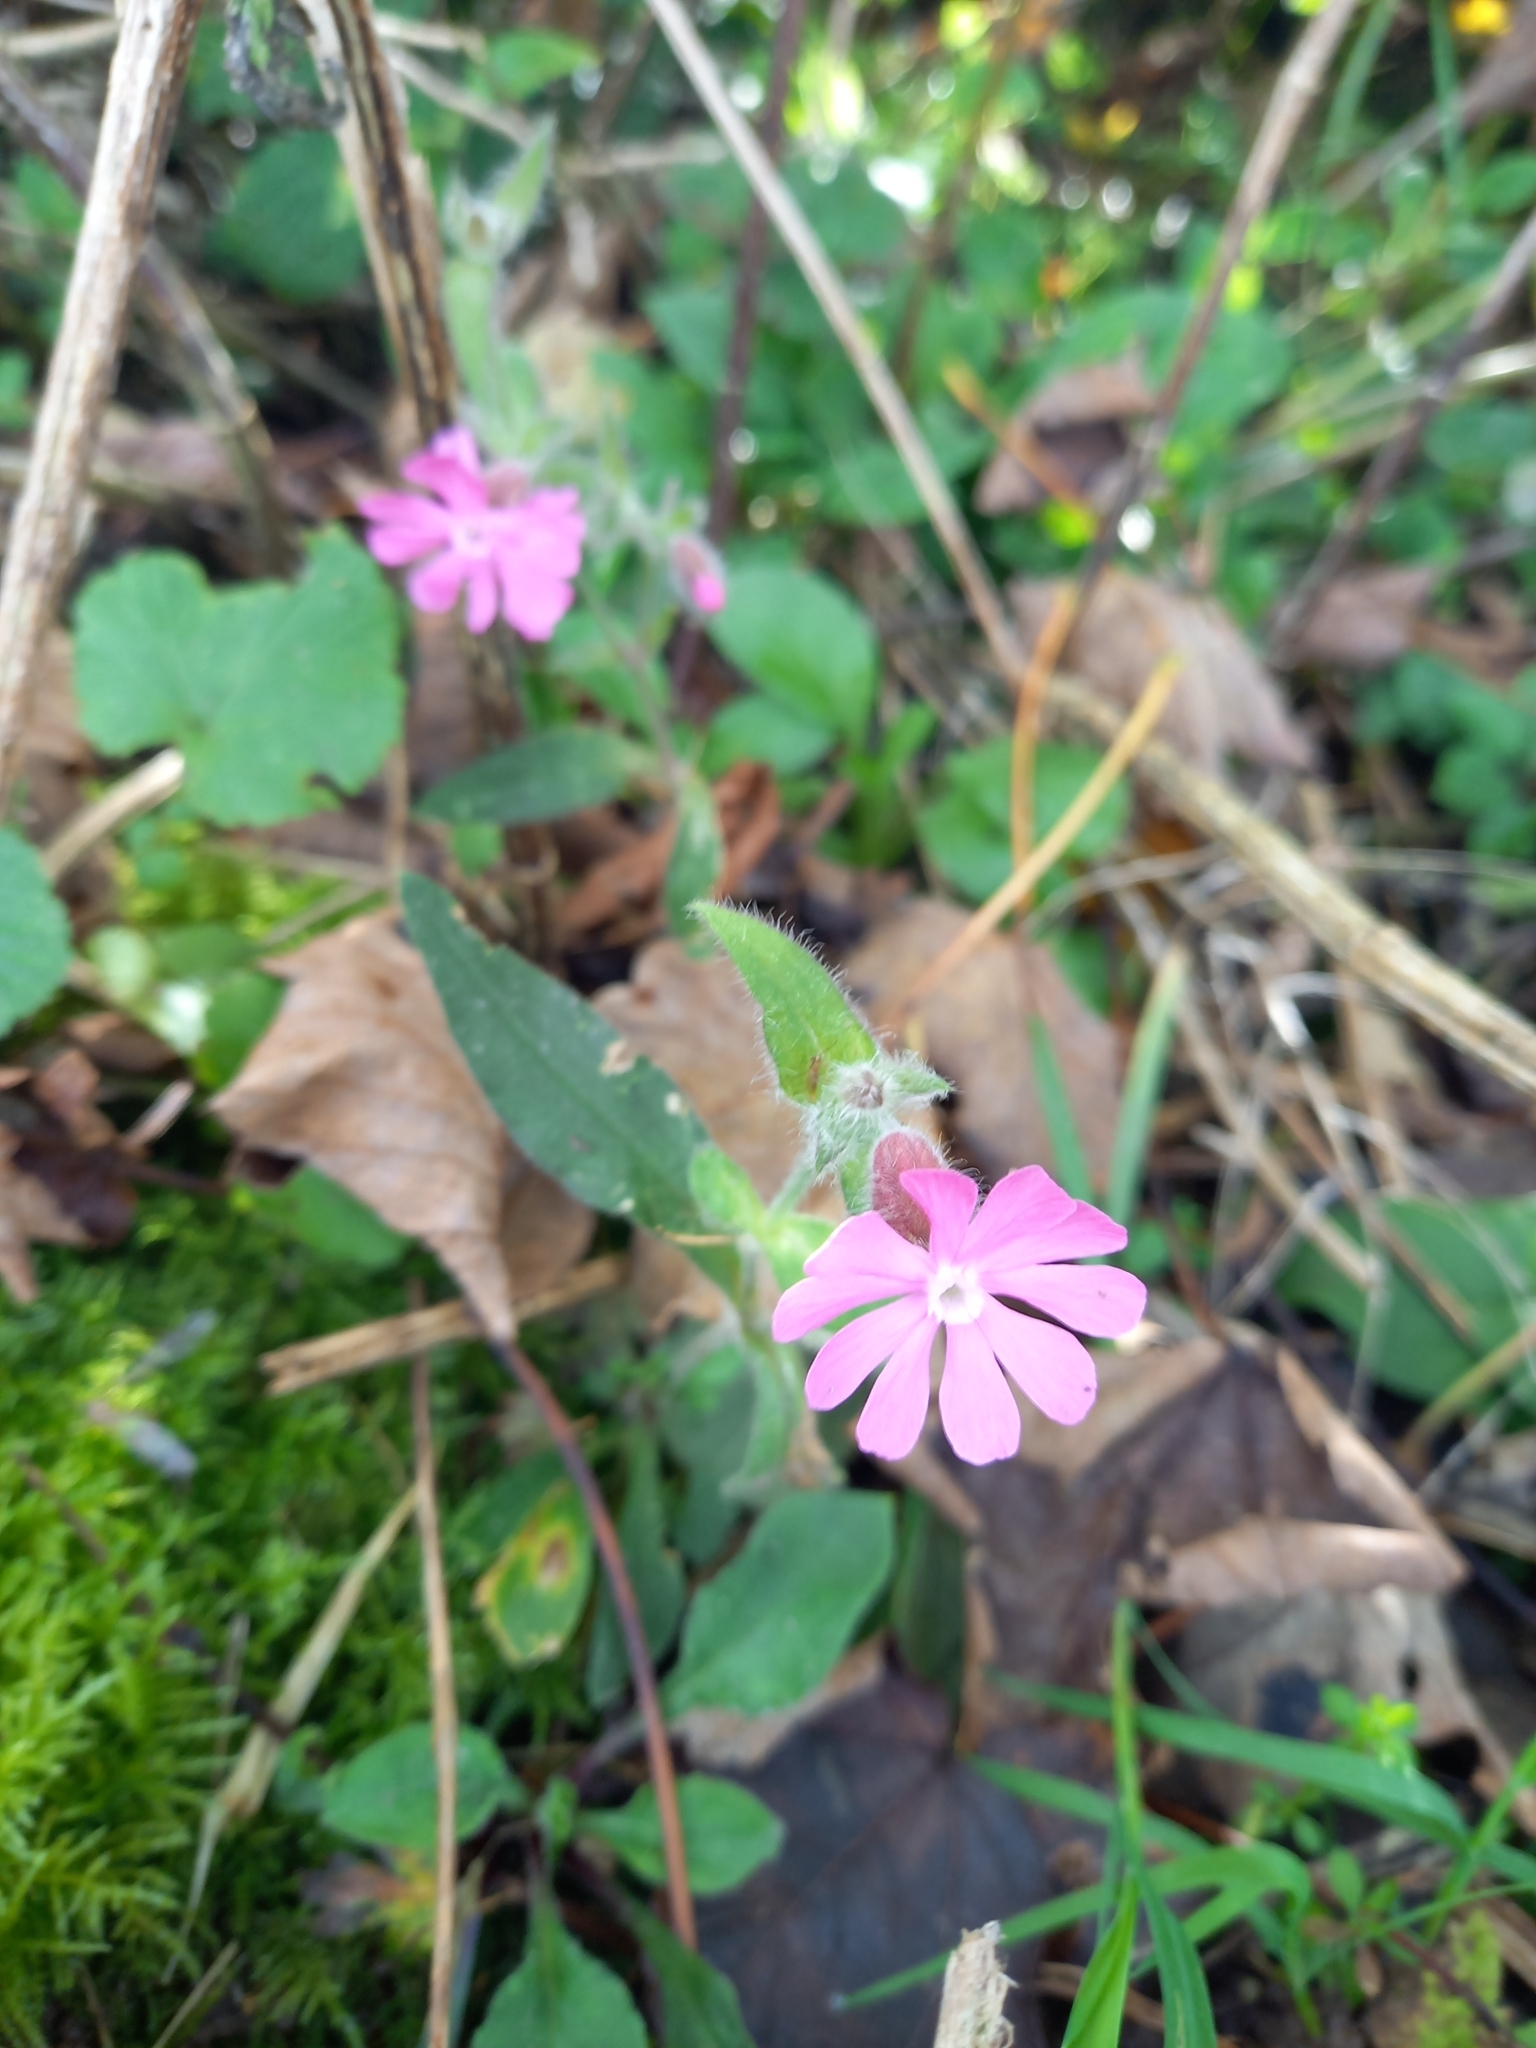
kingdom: Plantae
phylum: Tracheophyta
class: Magnoliopsida
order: Caryophyllales
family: Caryophyllaceae
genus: Silene
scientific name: Silene dioica
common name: Red campion
